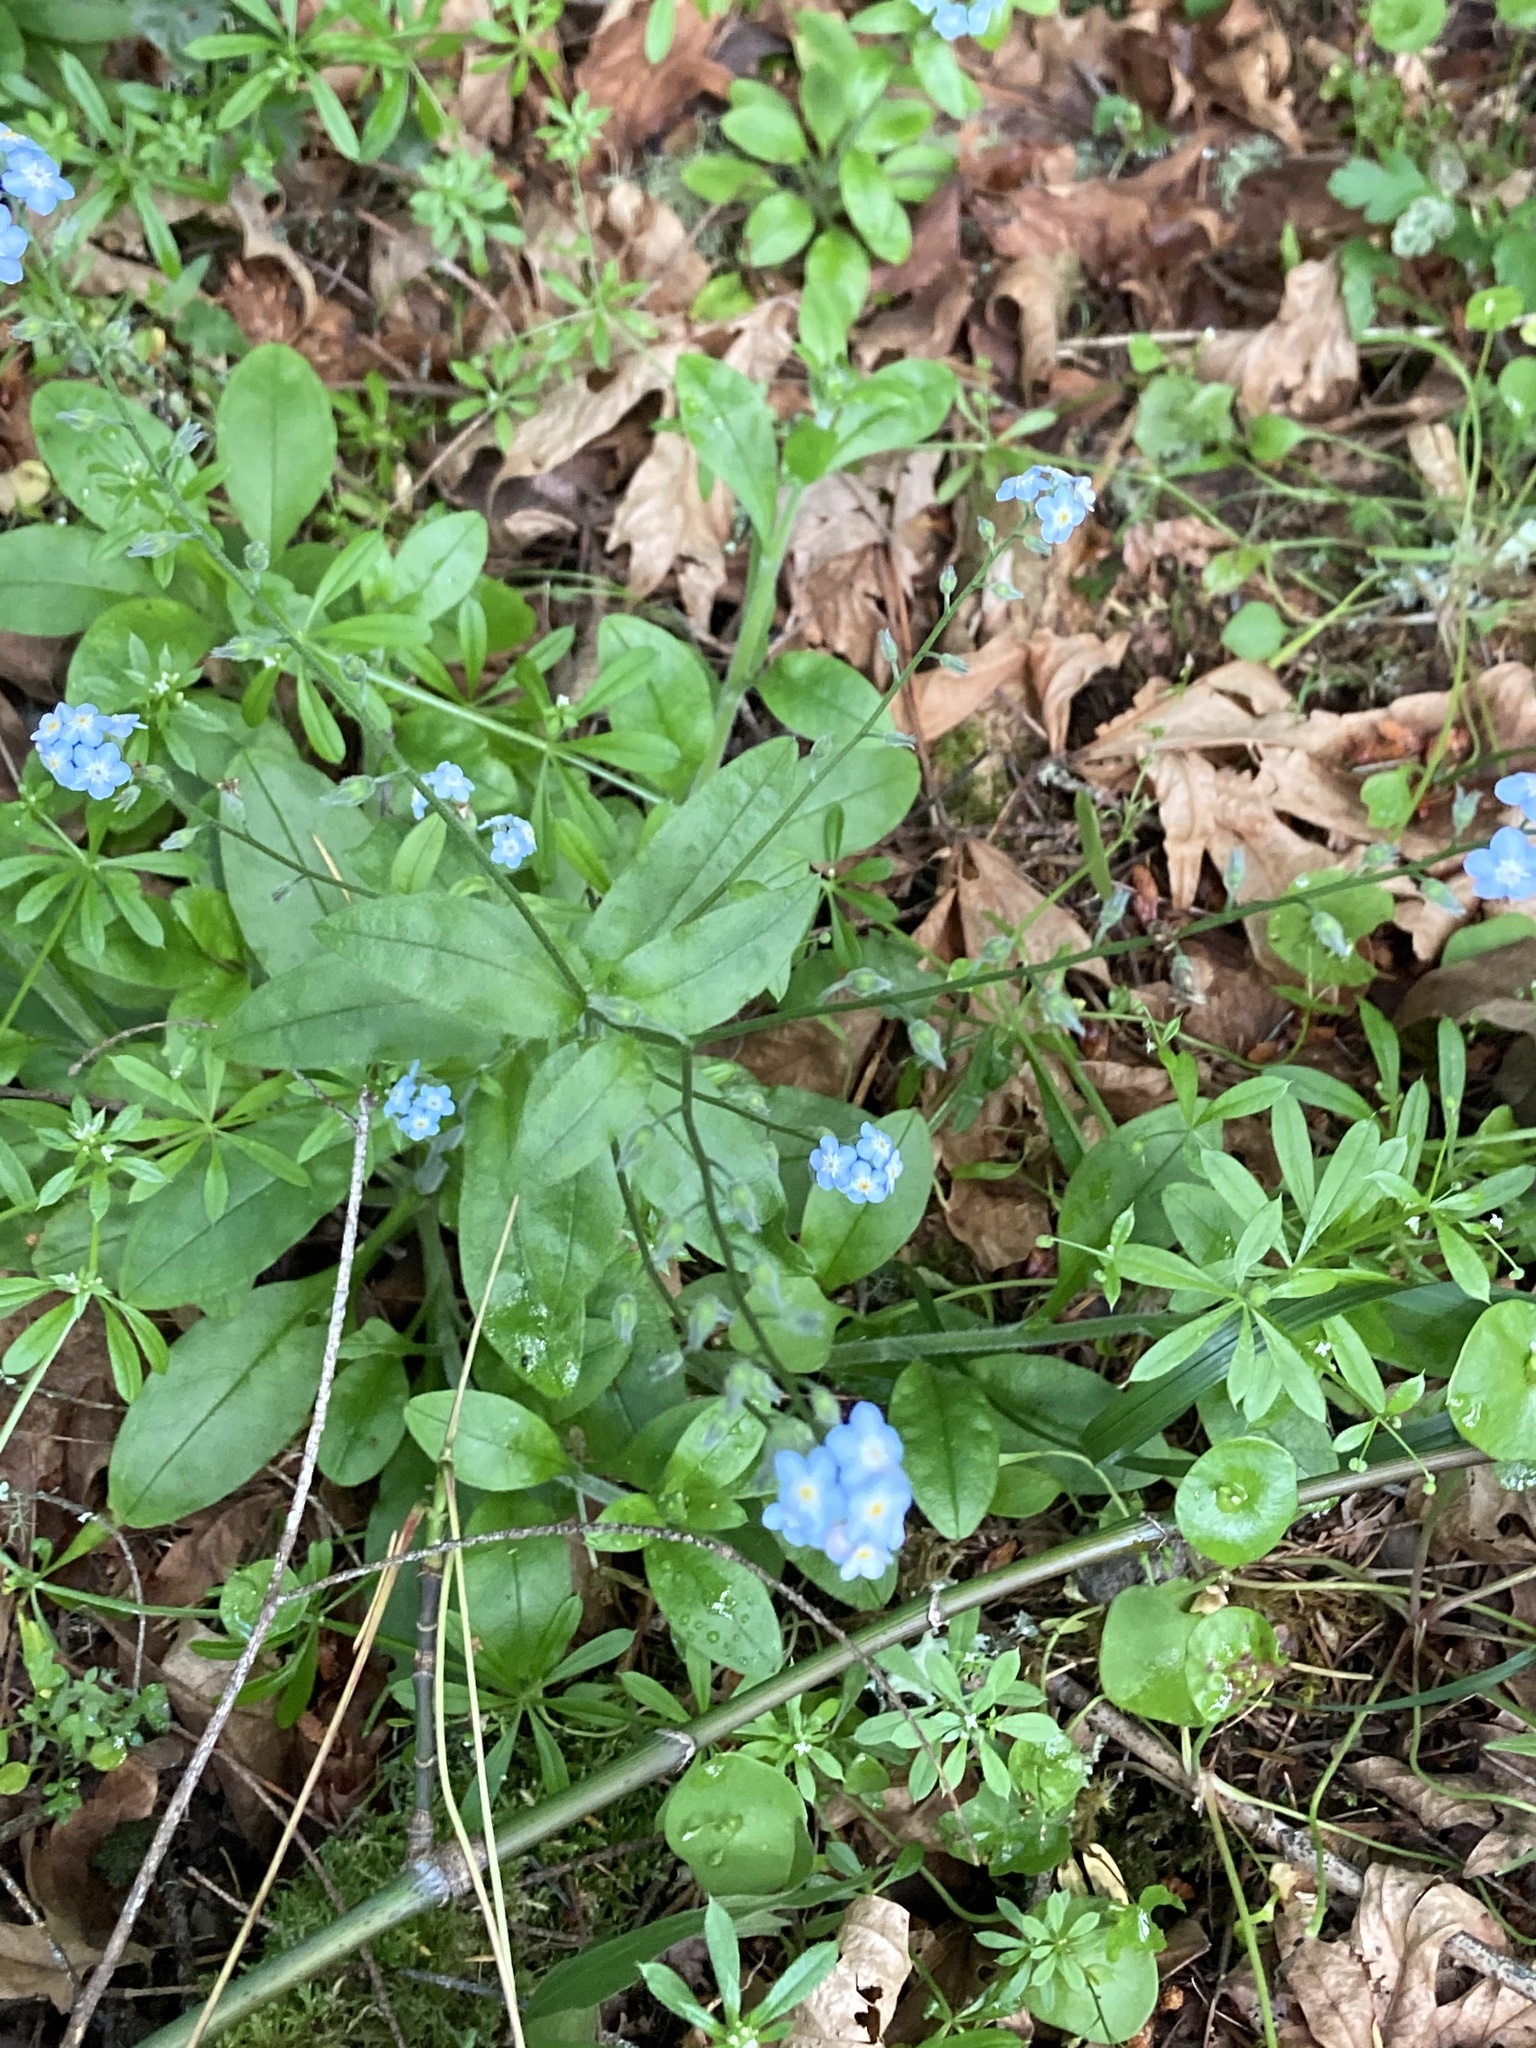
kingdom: Plantae
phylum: Tracheophyta
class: Magnoliopsida
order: Boraginales
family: Boraginaceae
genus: Myosotis
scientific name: Myosotis latifolia
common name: Broadleaf forget-me-not
